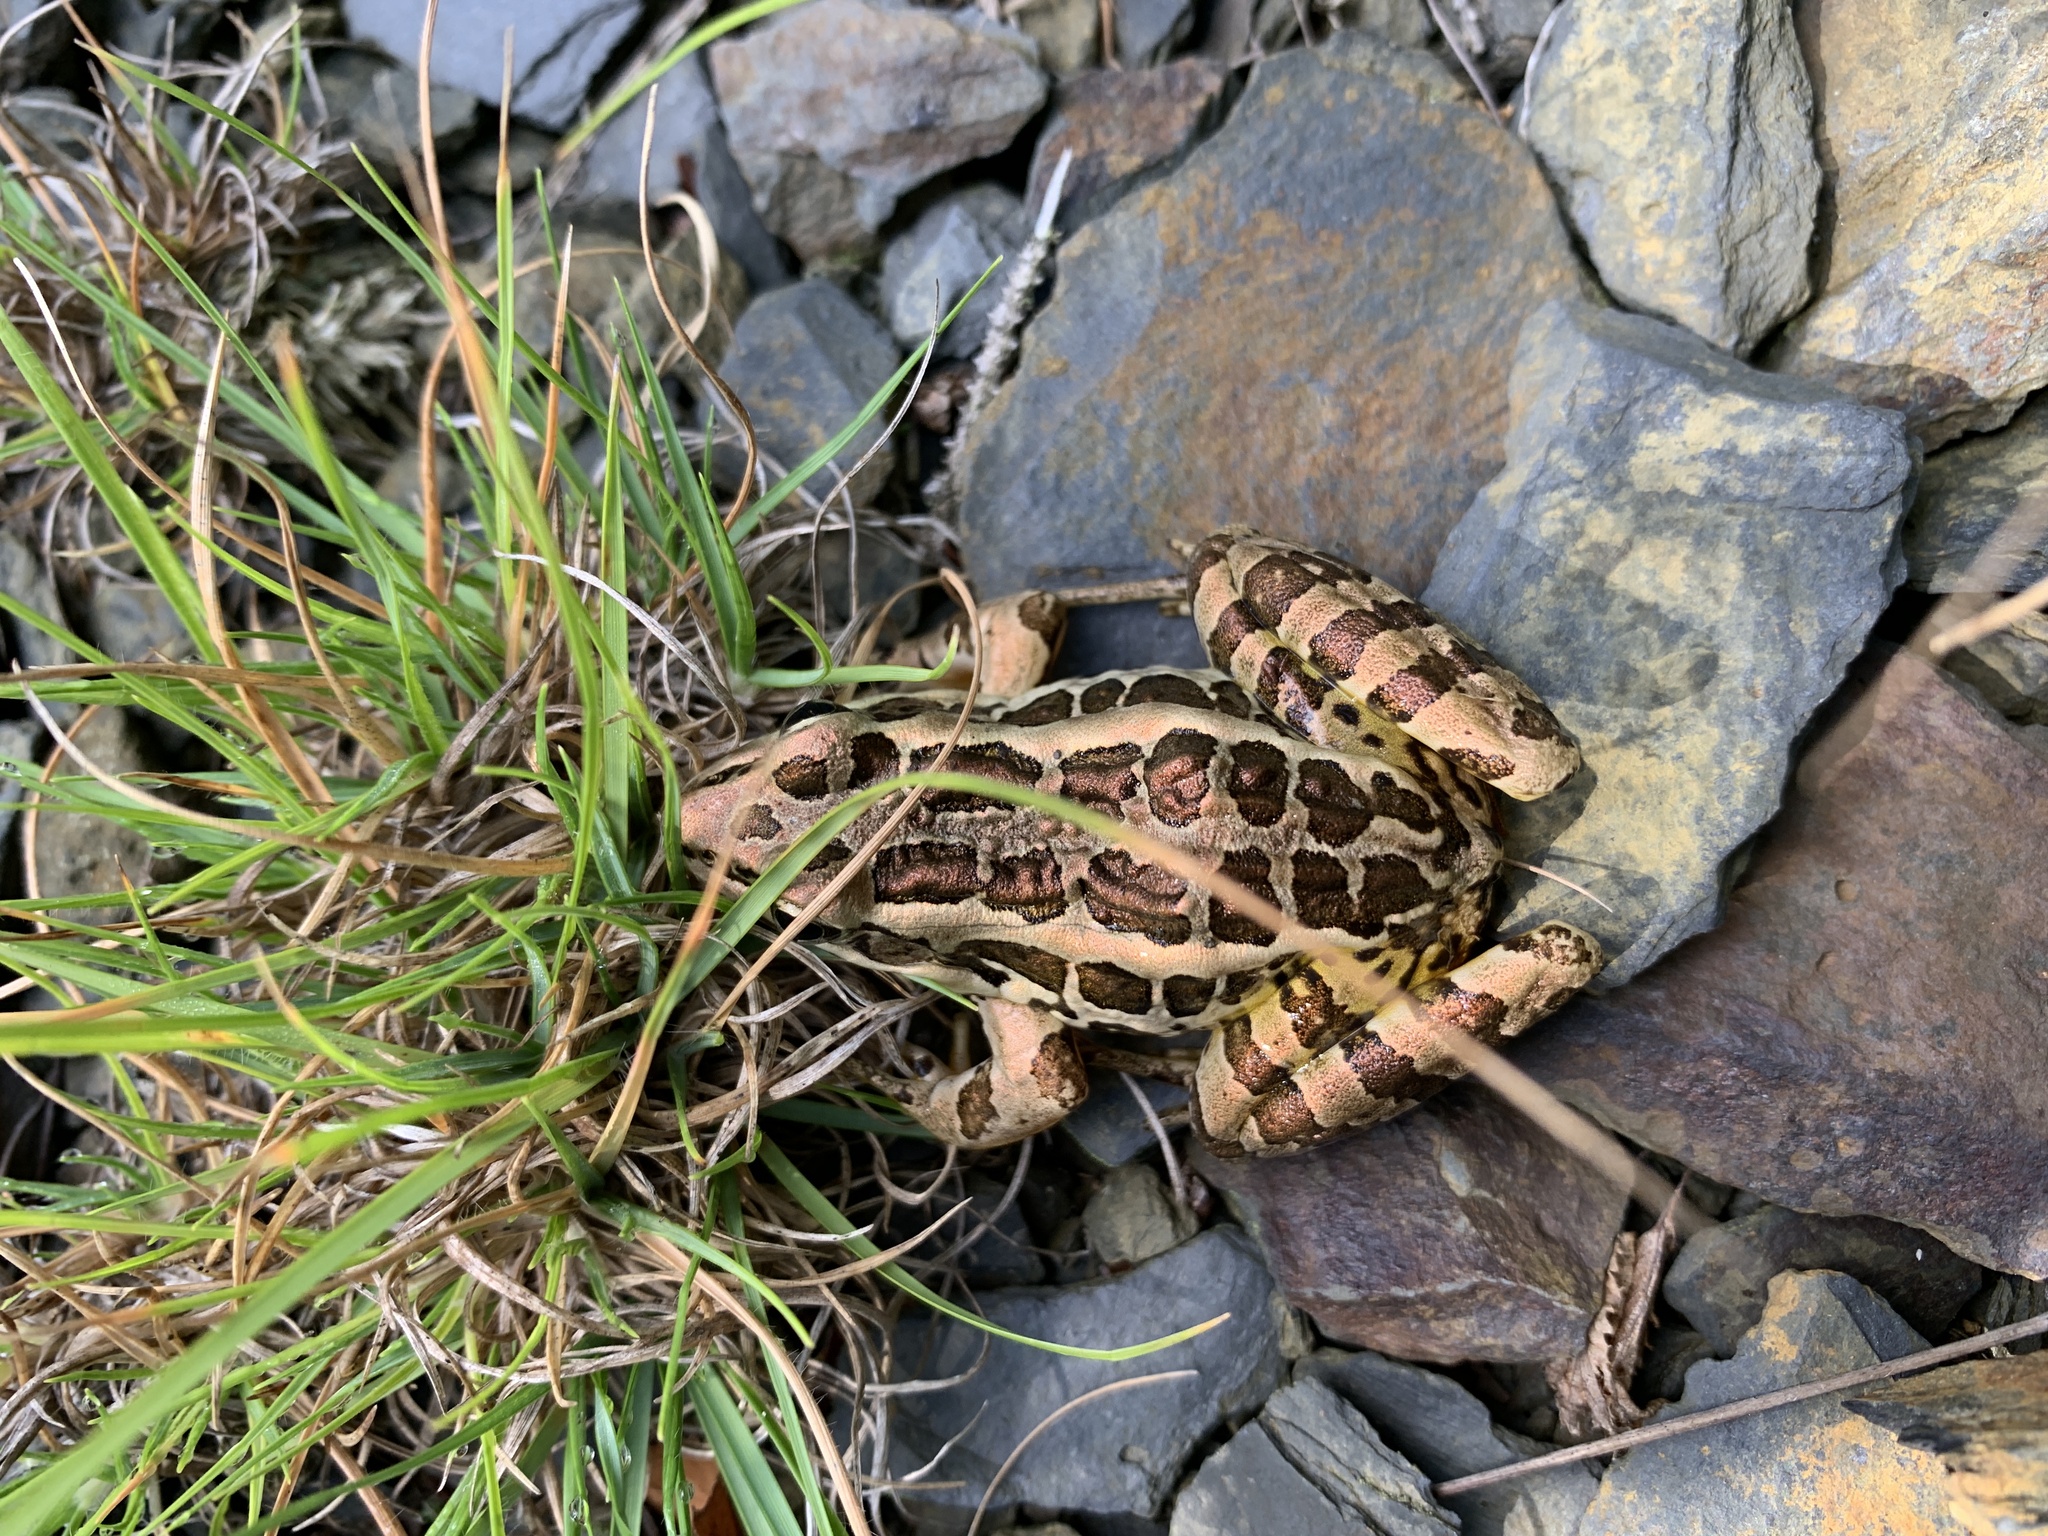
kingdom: Animalia
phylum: Chordata
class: Amphibia
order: Anura
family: Ranidae
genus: Lithobates
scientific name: Lithobates palustris
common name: Pickerel frog
